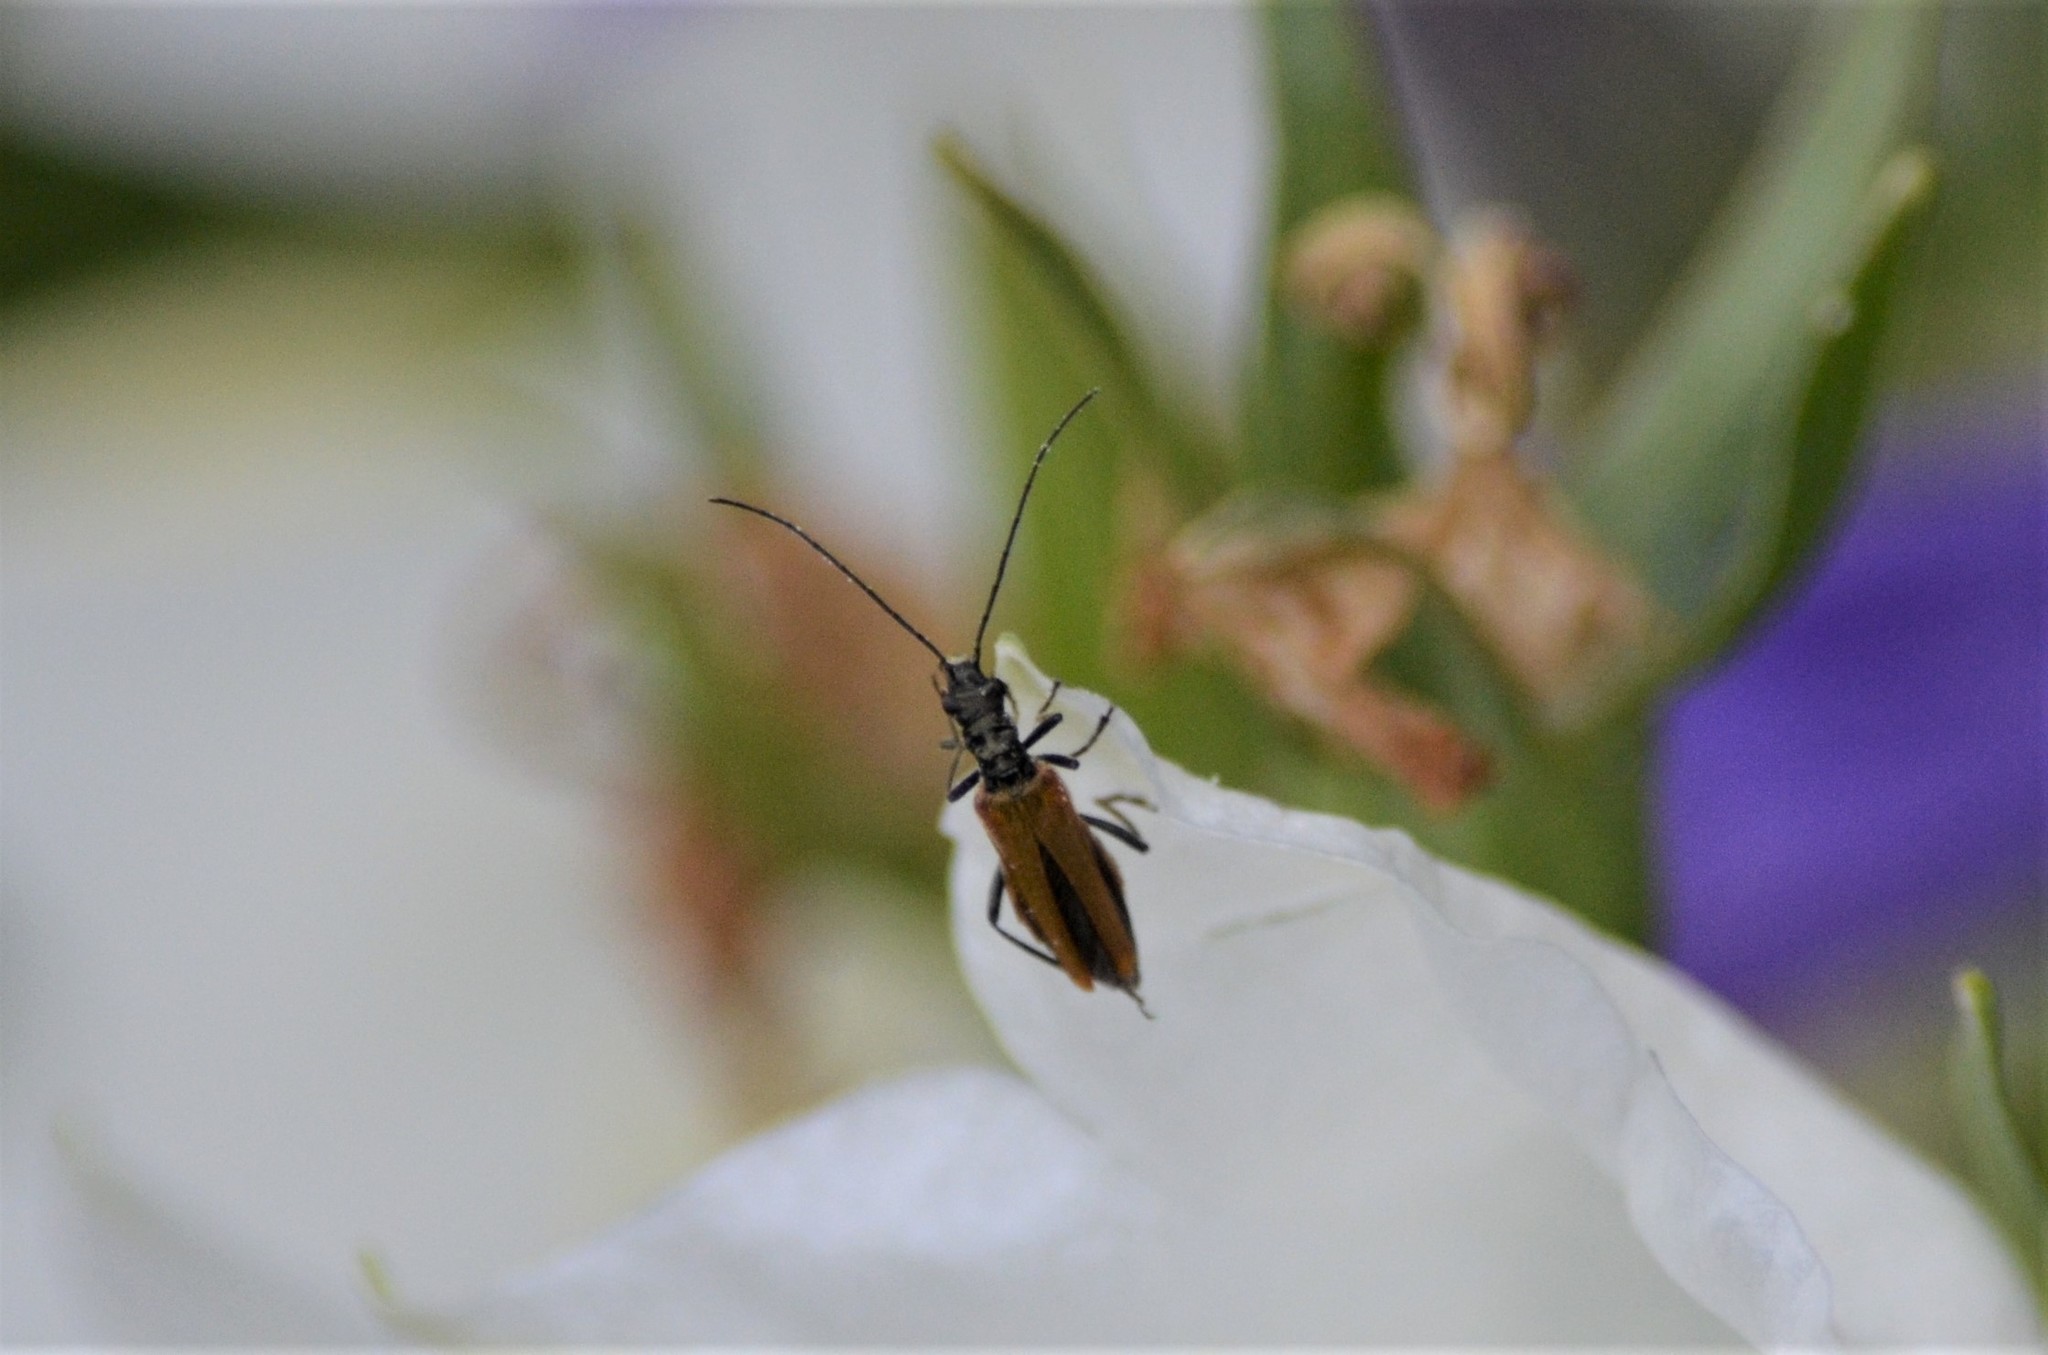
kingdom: Animalia
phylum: Arthropoda
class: Insecta
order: Coleoptera
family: Oedemeridae
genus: Oedemera
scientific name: Oedemera femorata
